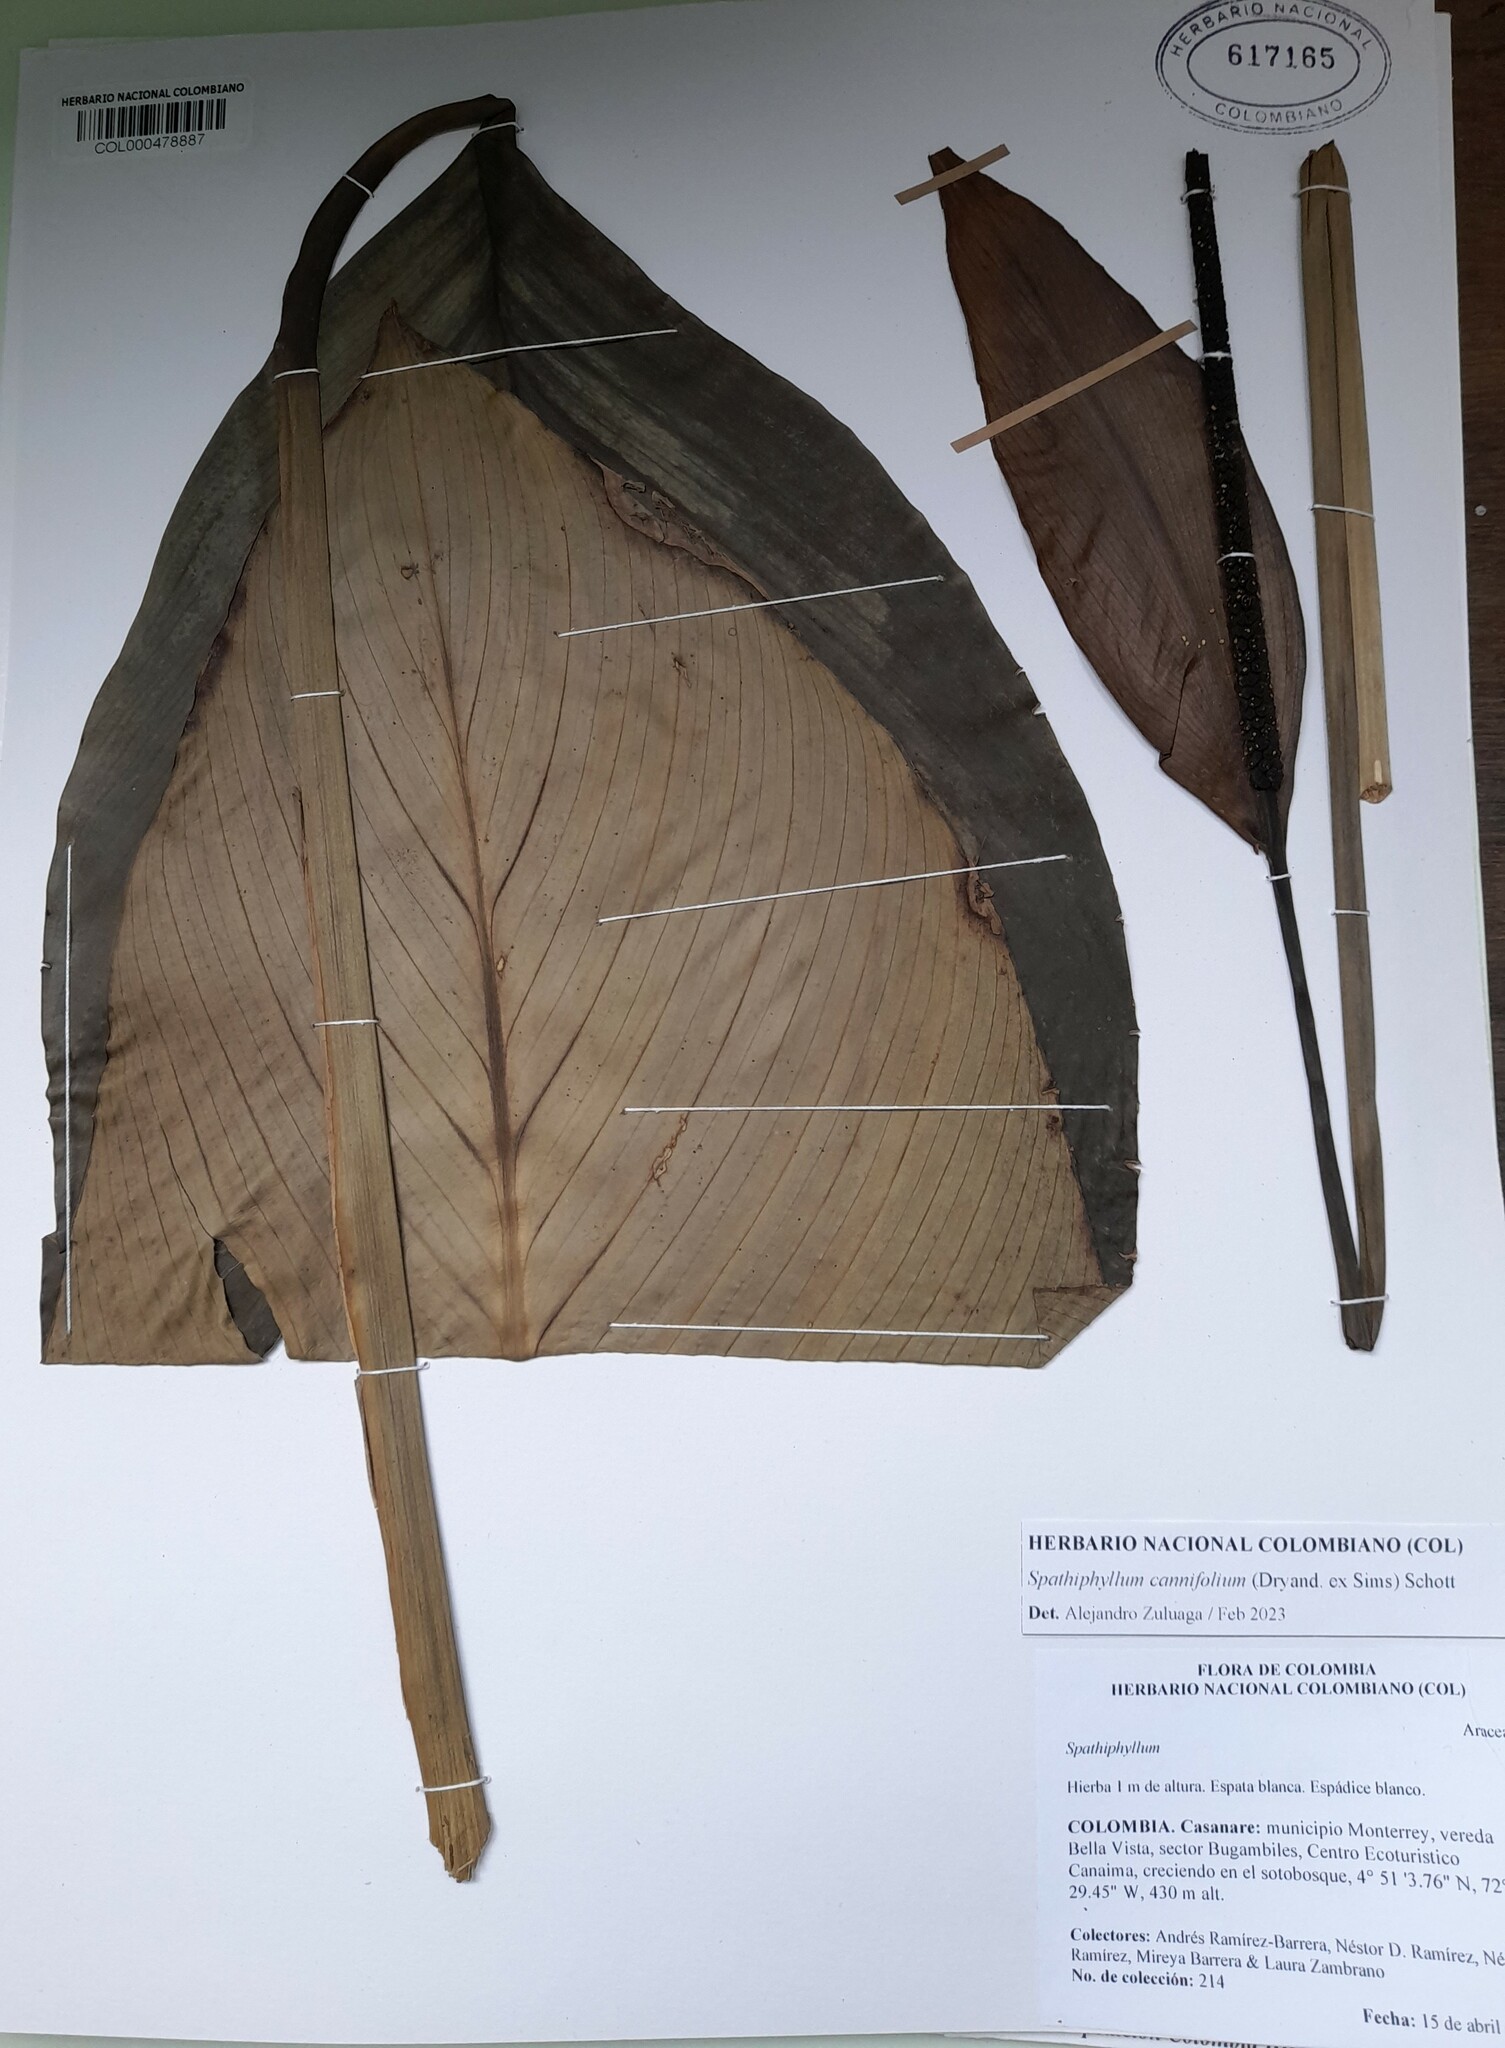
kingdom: Plantae
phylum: Tracheophyta
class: Liliopsida
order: Alismatales
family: Araceae
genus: Spathiphyllum
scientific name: Spathiphyllum cannifolium
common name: Spatheflower
